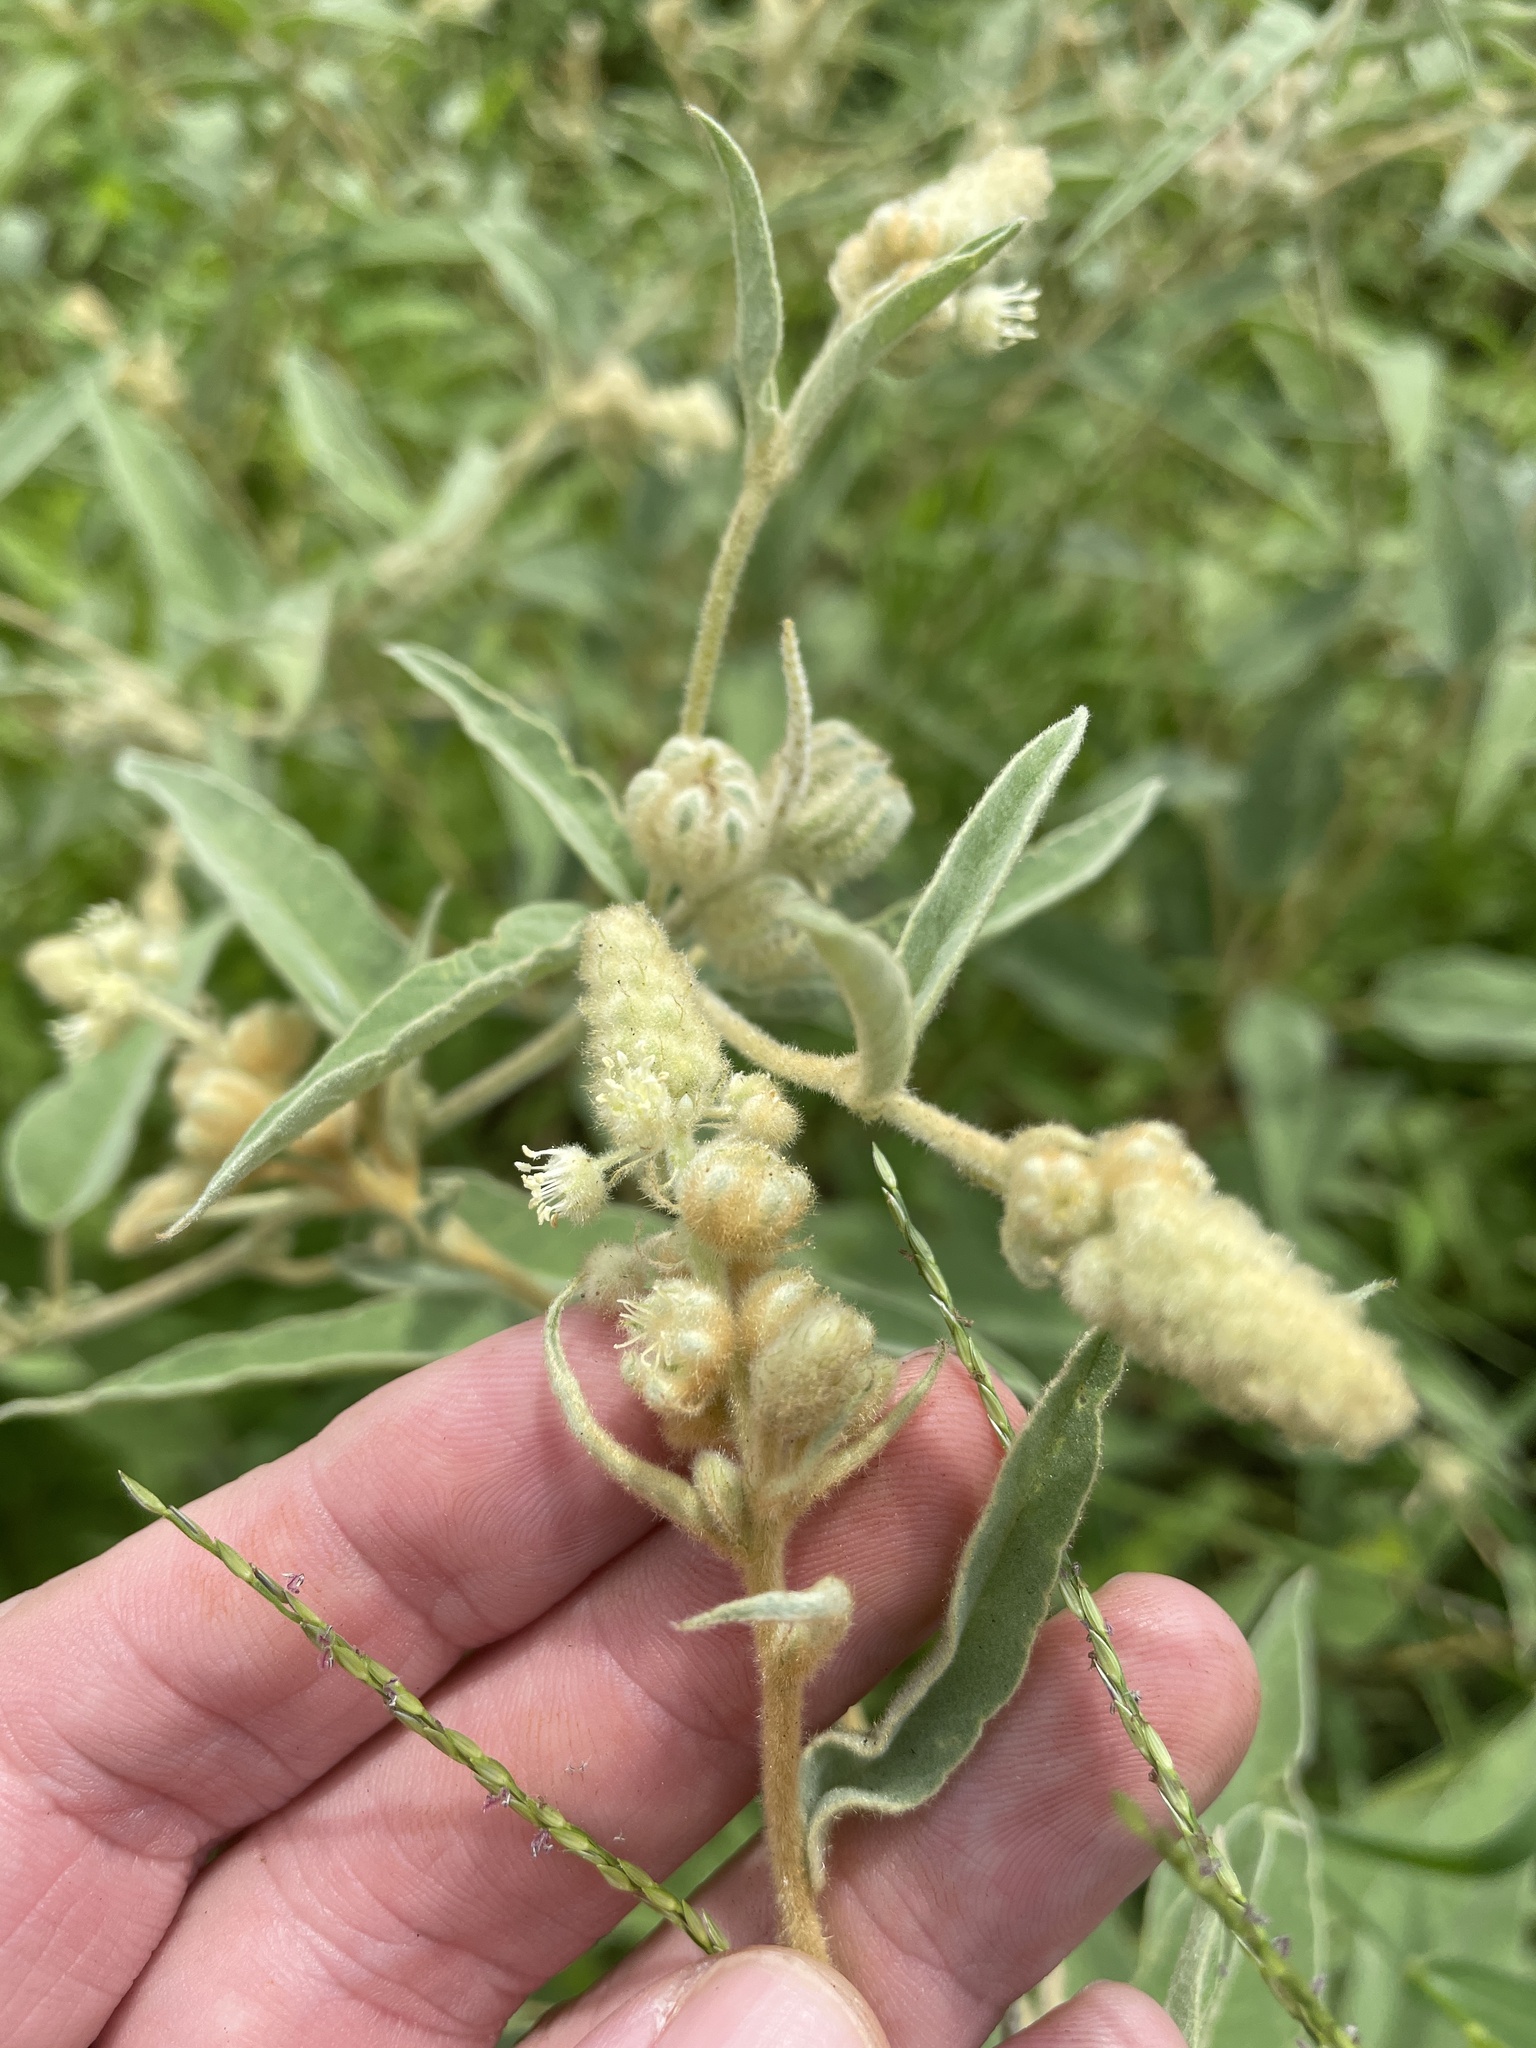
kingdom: Plantae
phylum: Tracheophyta
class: Magnoliopsida
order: Malpighiales
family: Euphorbiaceae
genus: Croton
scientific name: Croton lindheimeri
